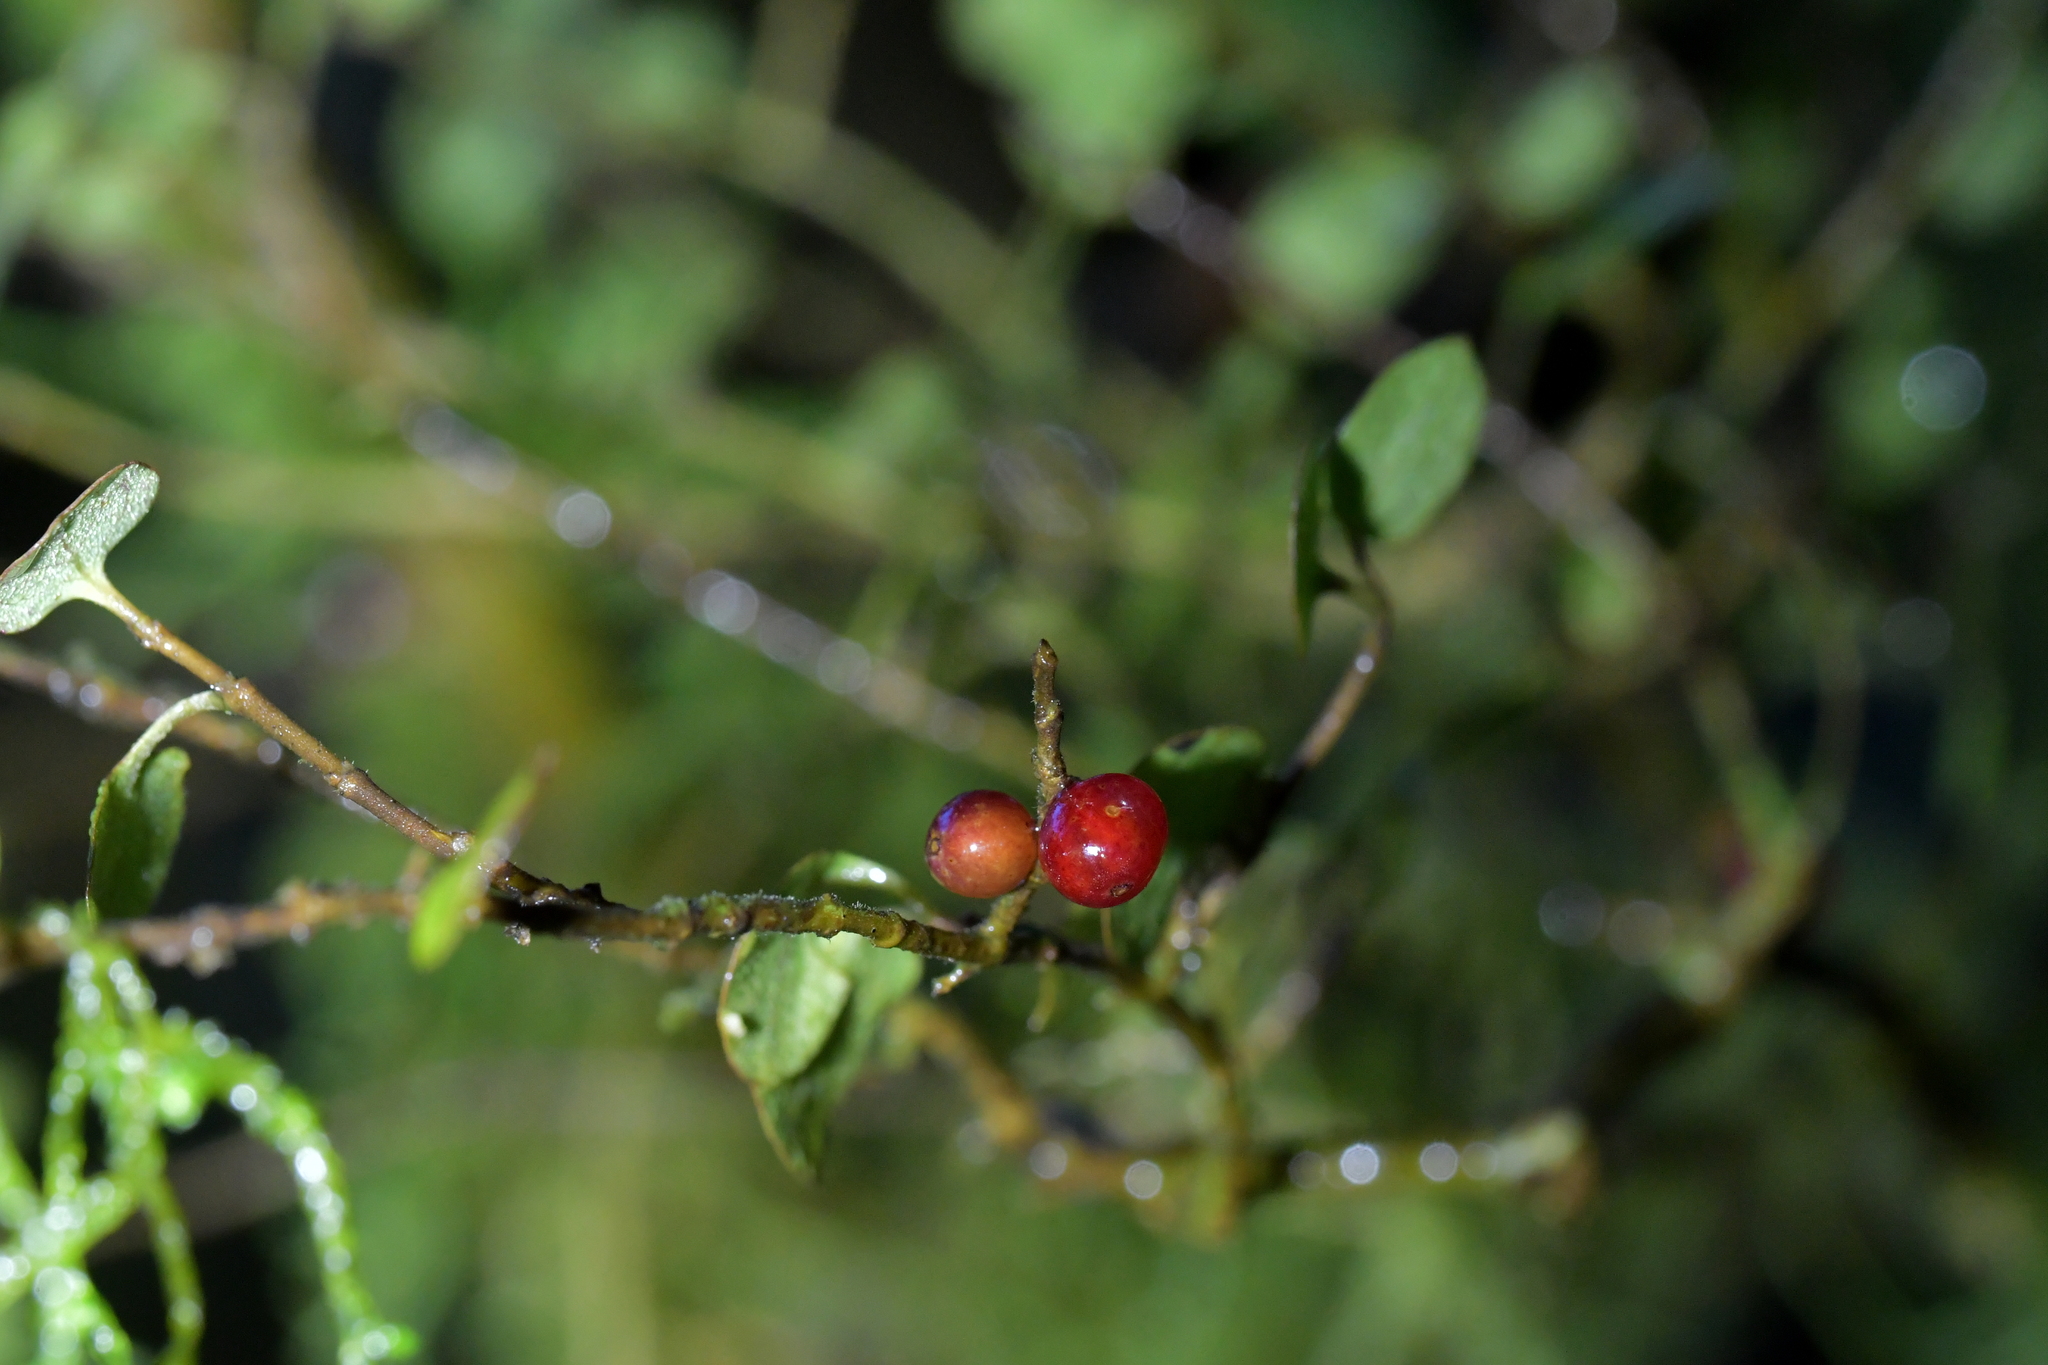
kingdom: Plantae
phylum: Tracheophyta
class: Magnoliopsida
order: Gentianales
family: Rubiaceae
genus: Coprosma
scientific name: Coprosma rhamnoides
